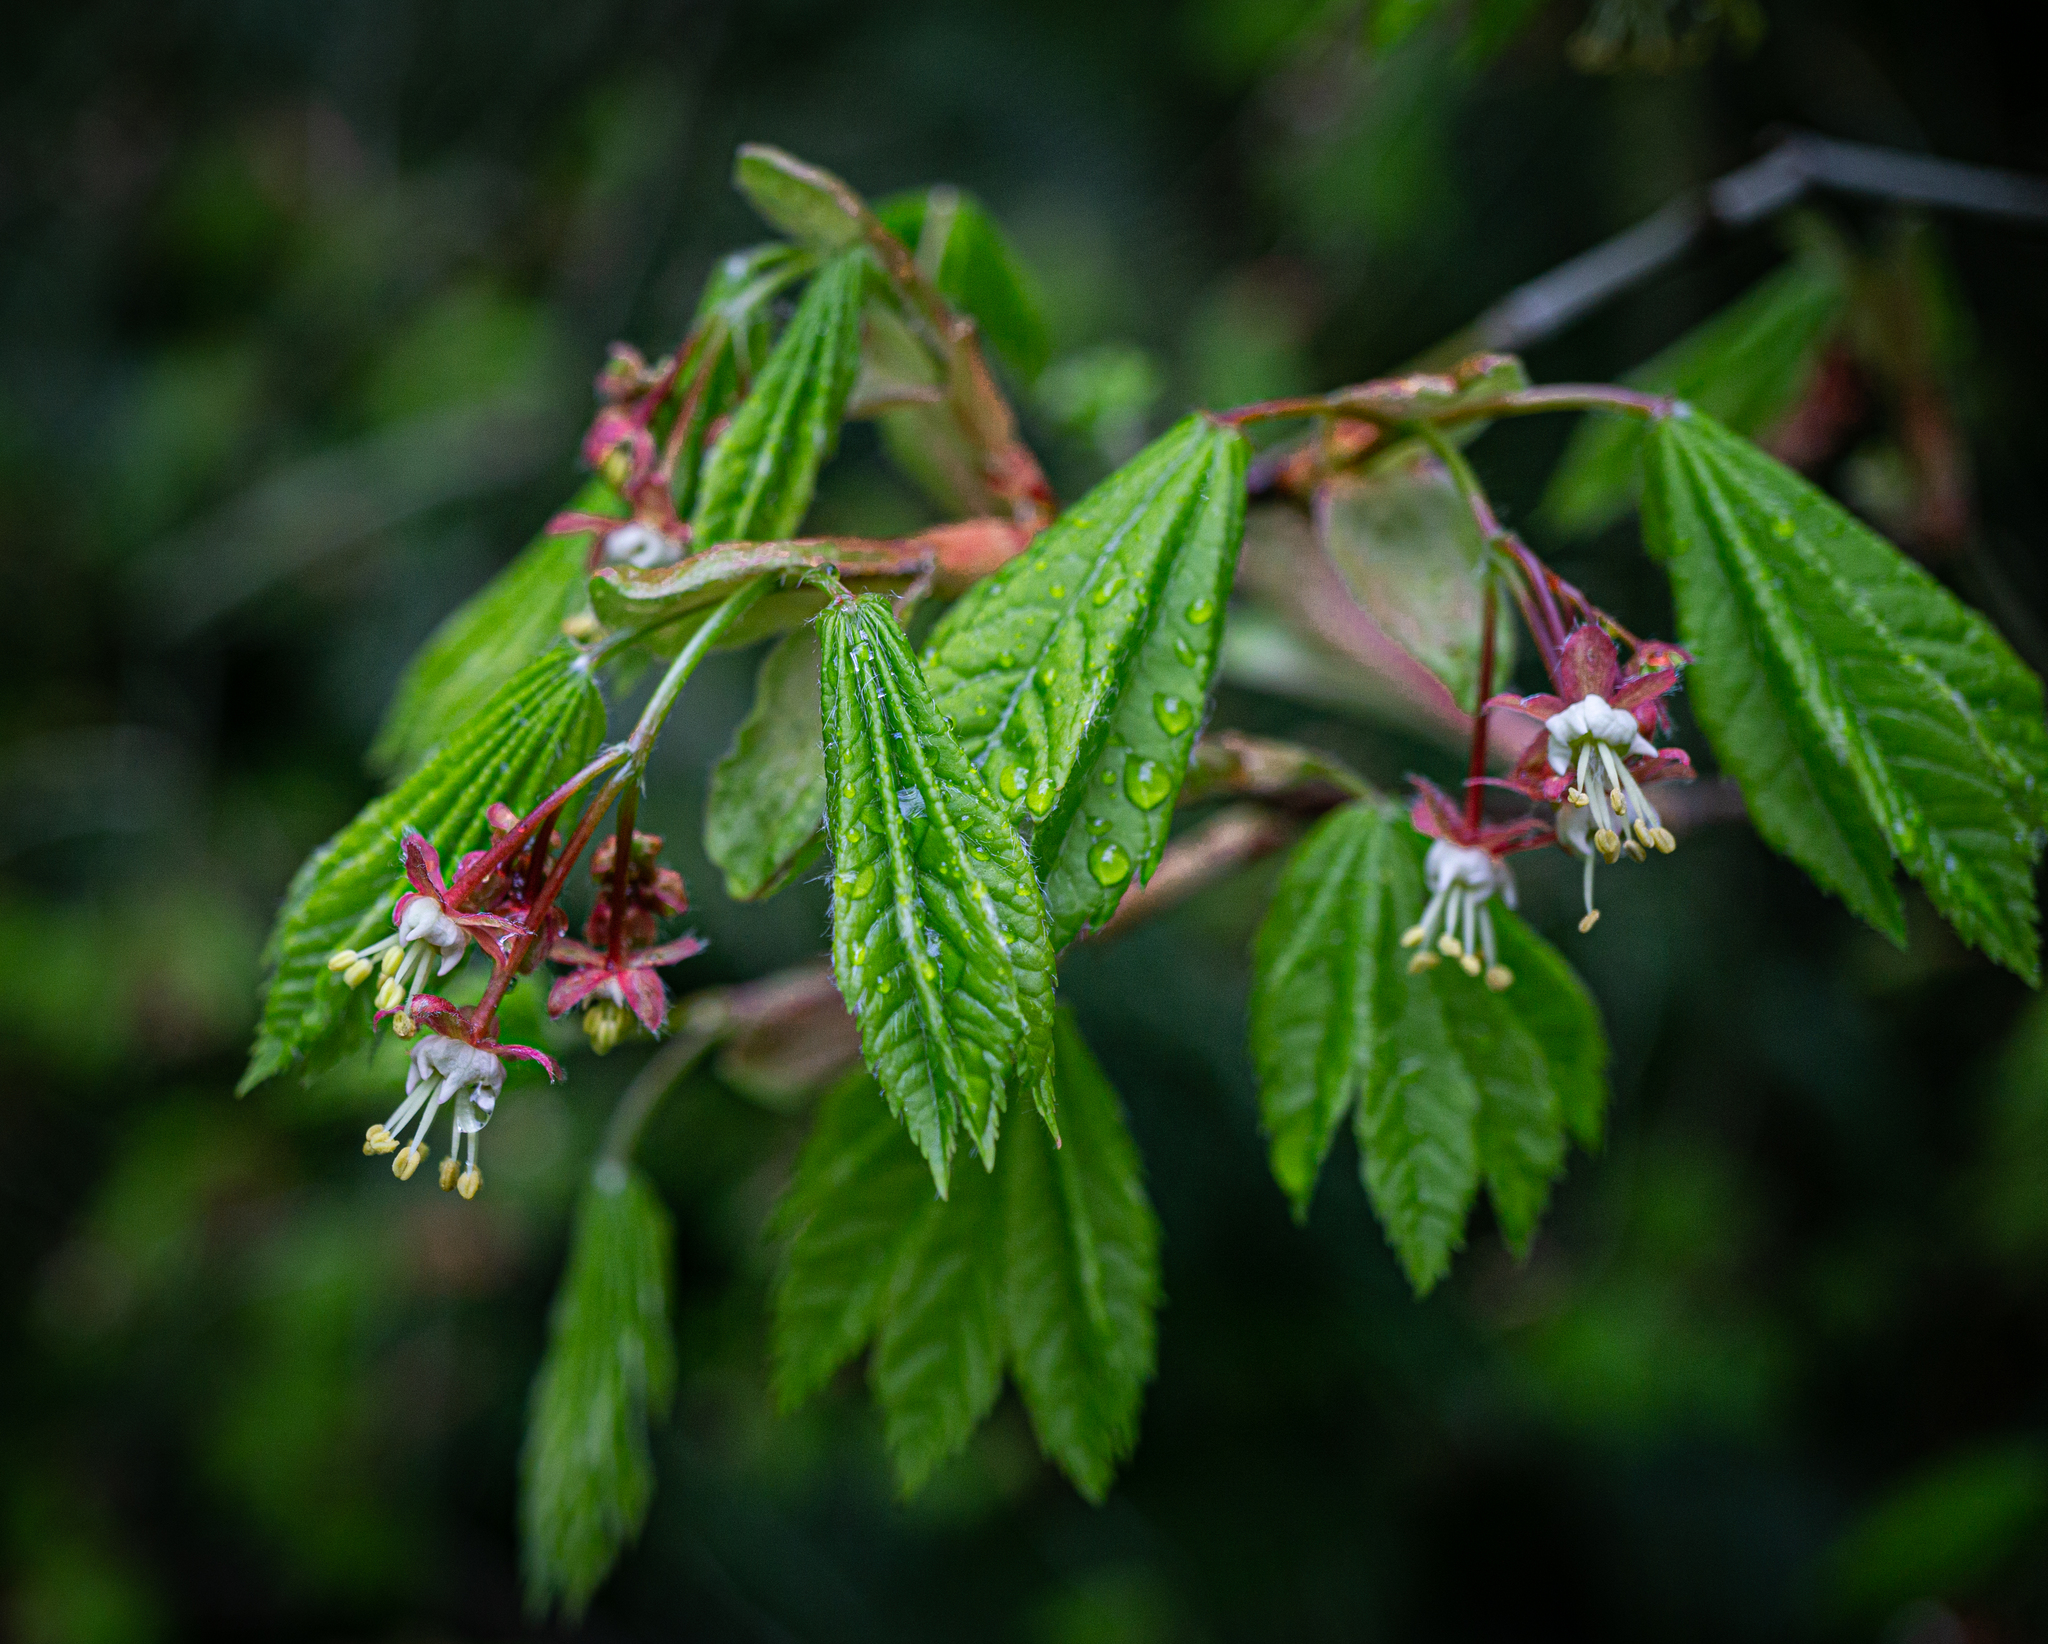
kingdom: Plantae
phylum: Tracheophyta
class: Magnoliopsida
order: Sapindales
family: Sapindaceae
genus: Acer
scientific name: Acer circinatum
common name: Vine maple
